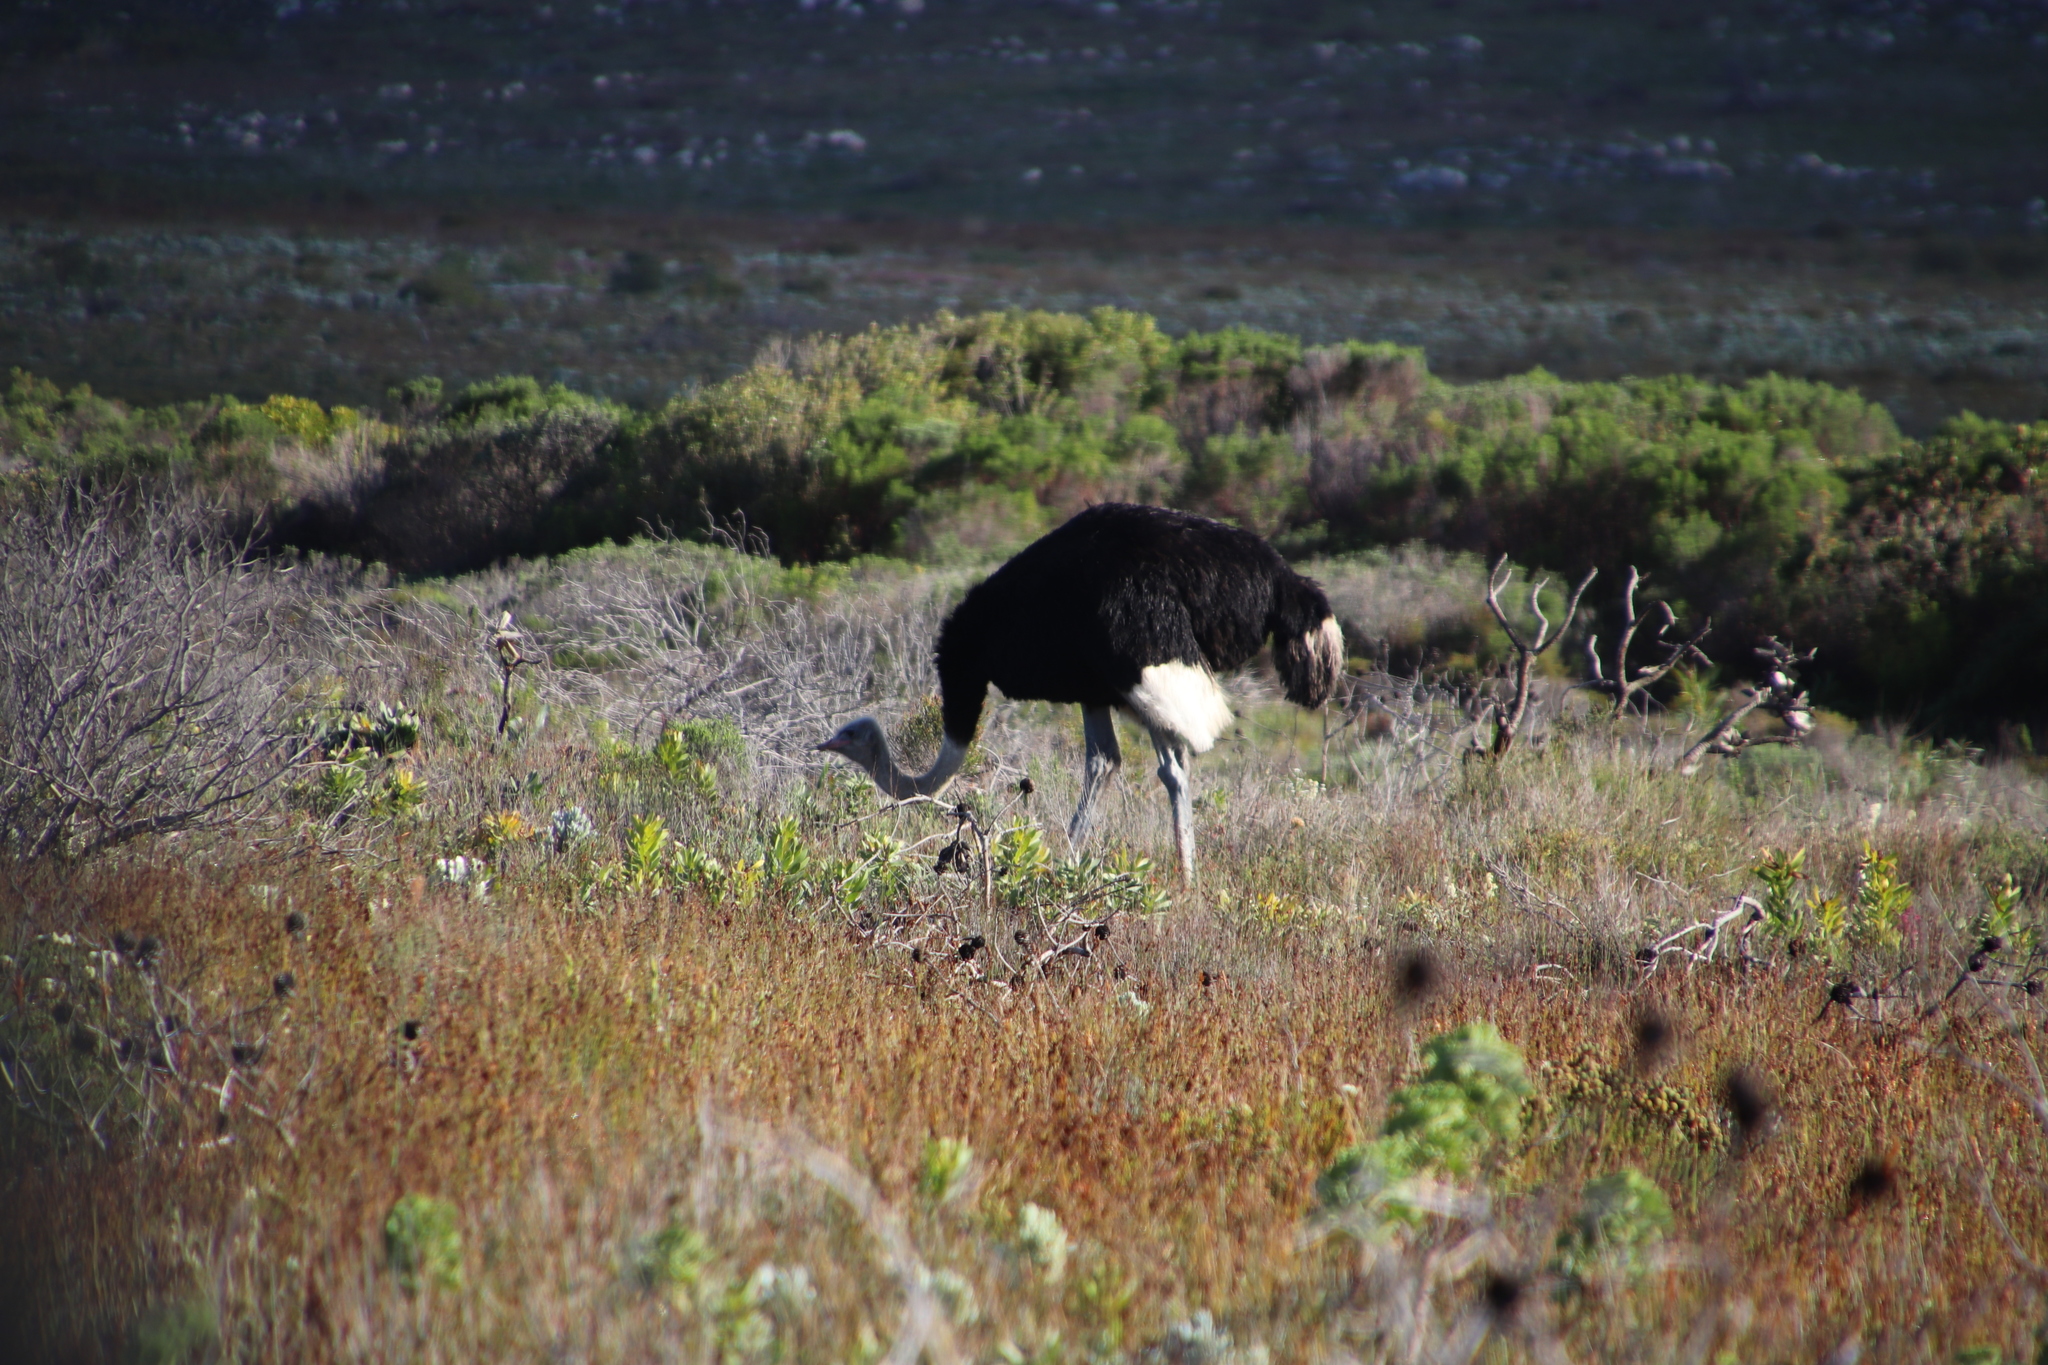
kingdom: Animalia
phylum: Chordata
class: Aves
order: Struthioniformes
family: Struthionidae
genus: Struthio
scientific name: Struthio camelus
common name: Common ostrich
